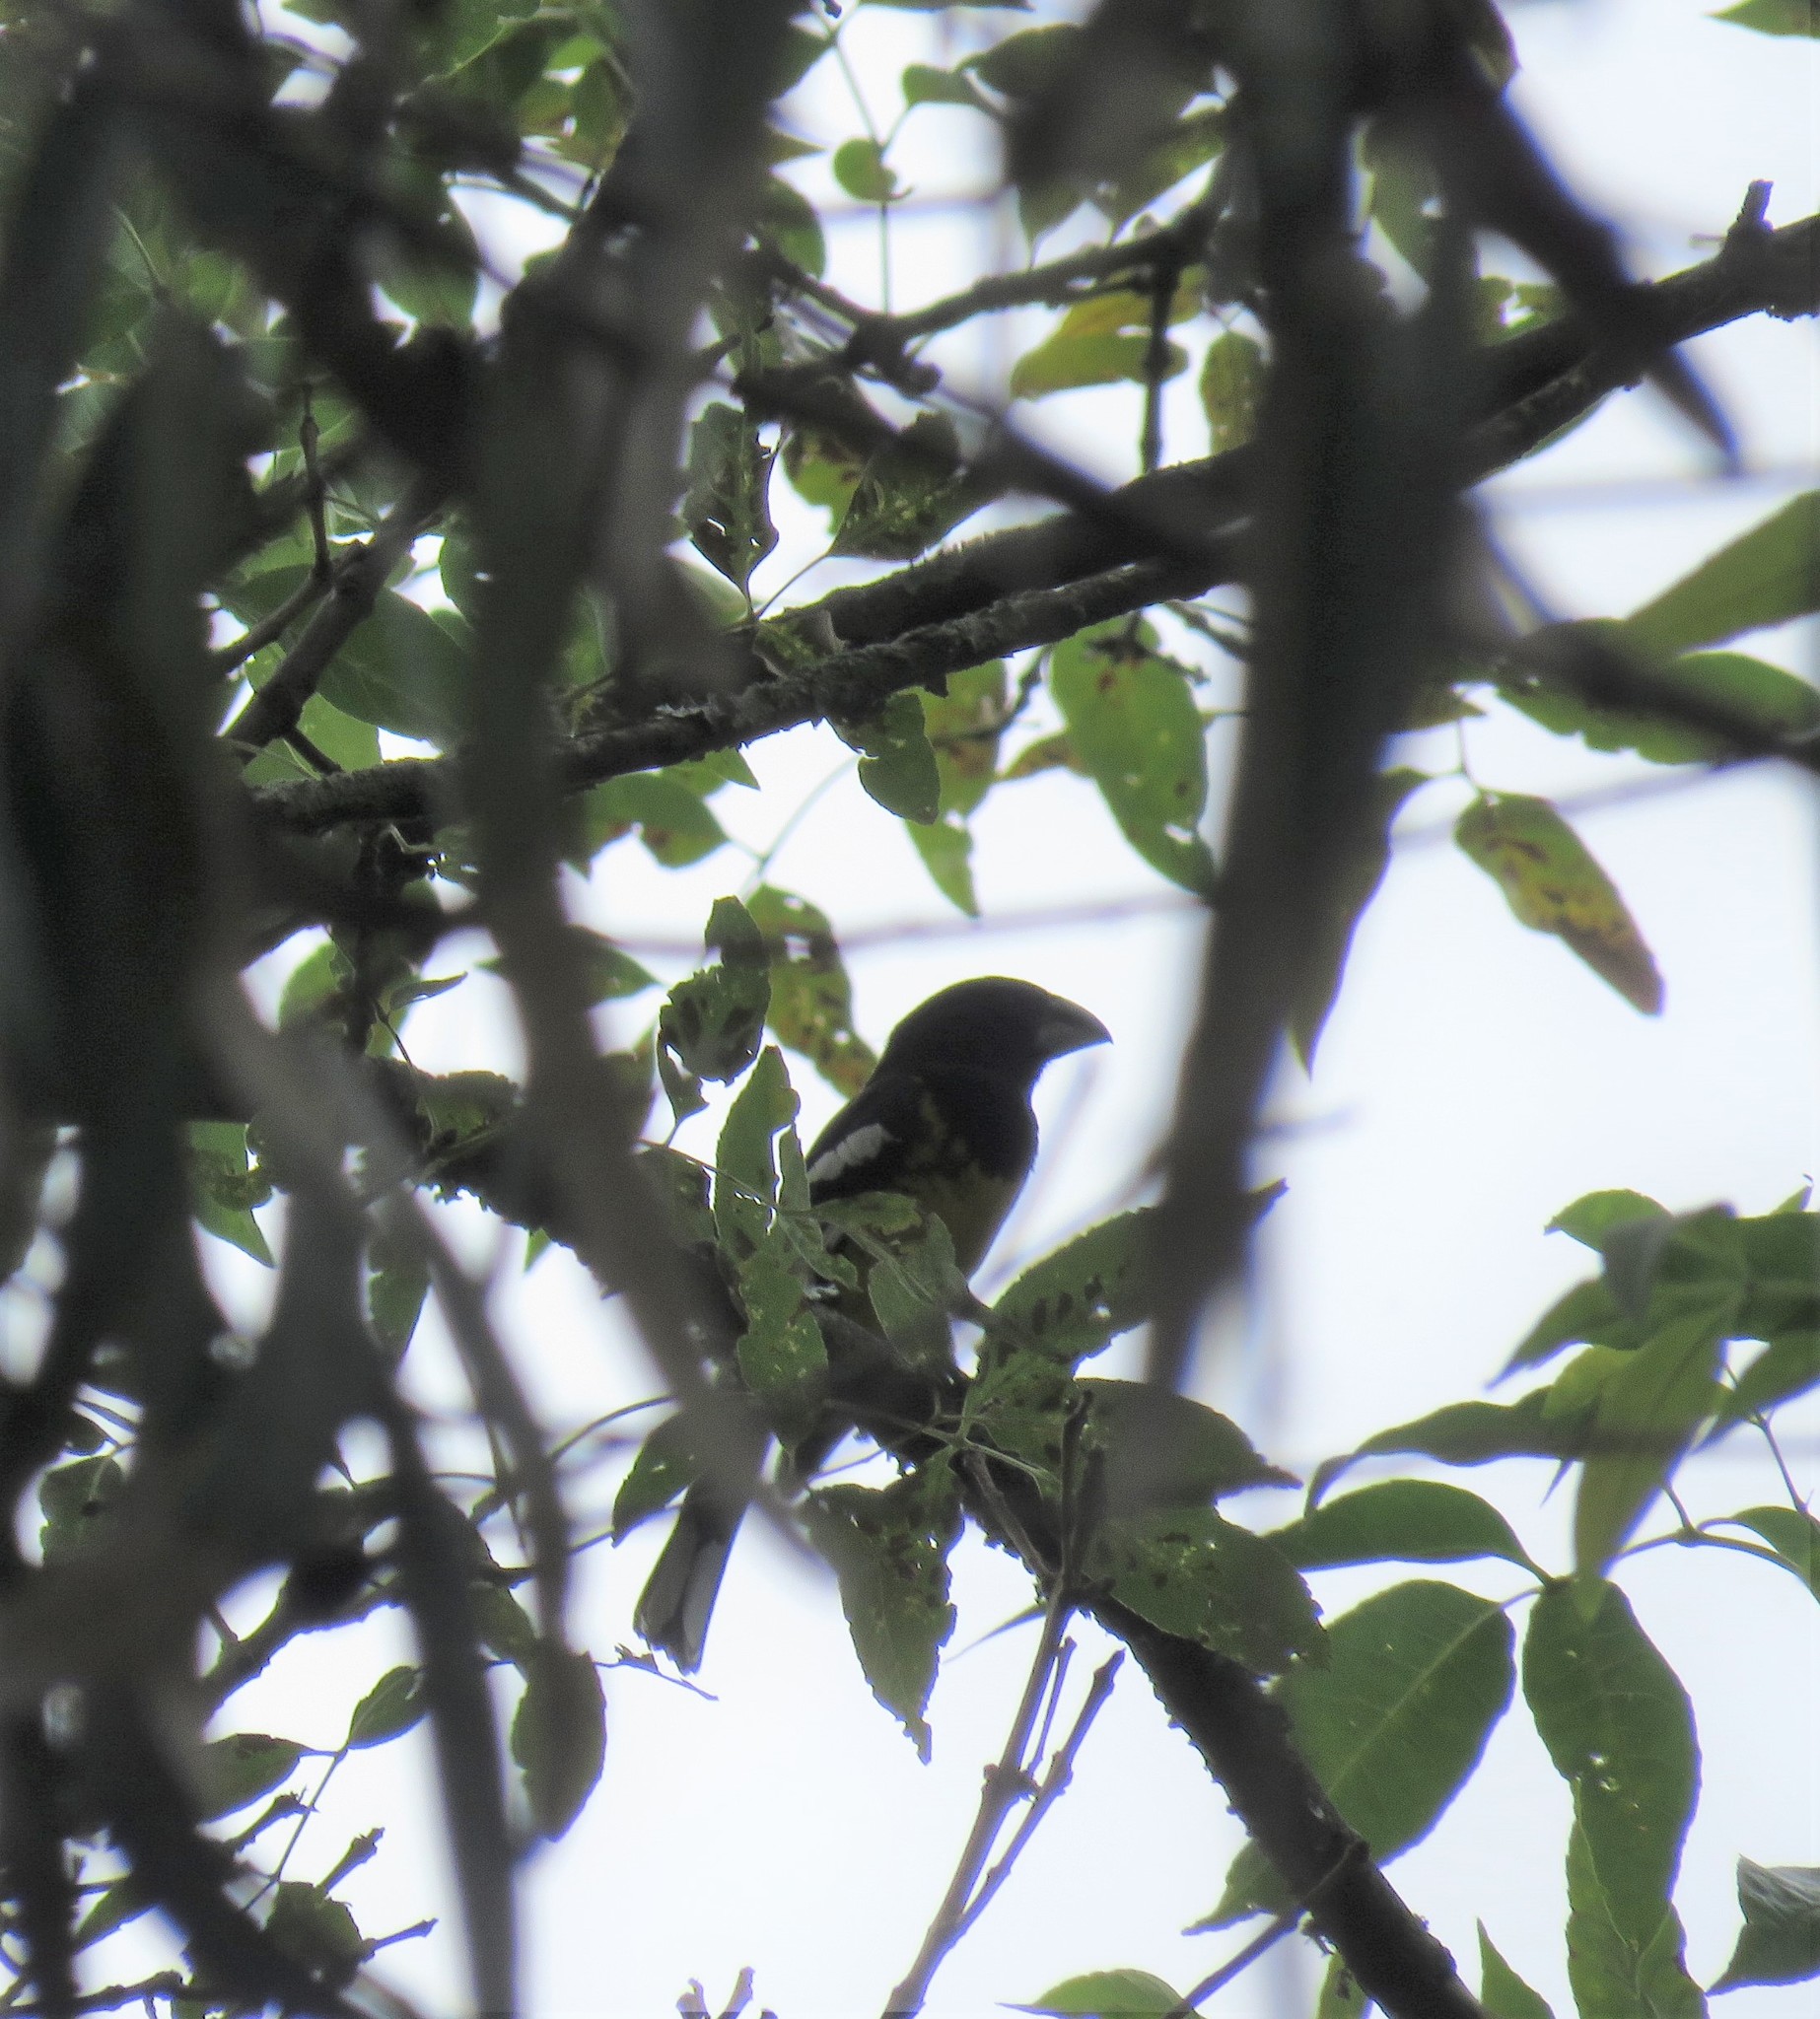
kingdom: Animalia
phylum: Chordata
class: Aves
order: Passeriformes
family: Cardinalidae
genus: Pheucticus
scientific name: Pheucticus aureoventris
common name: Black-backed grosbeak
